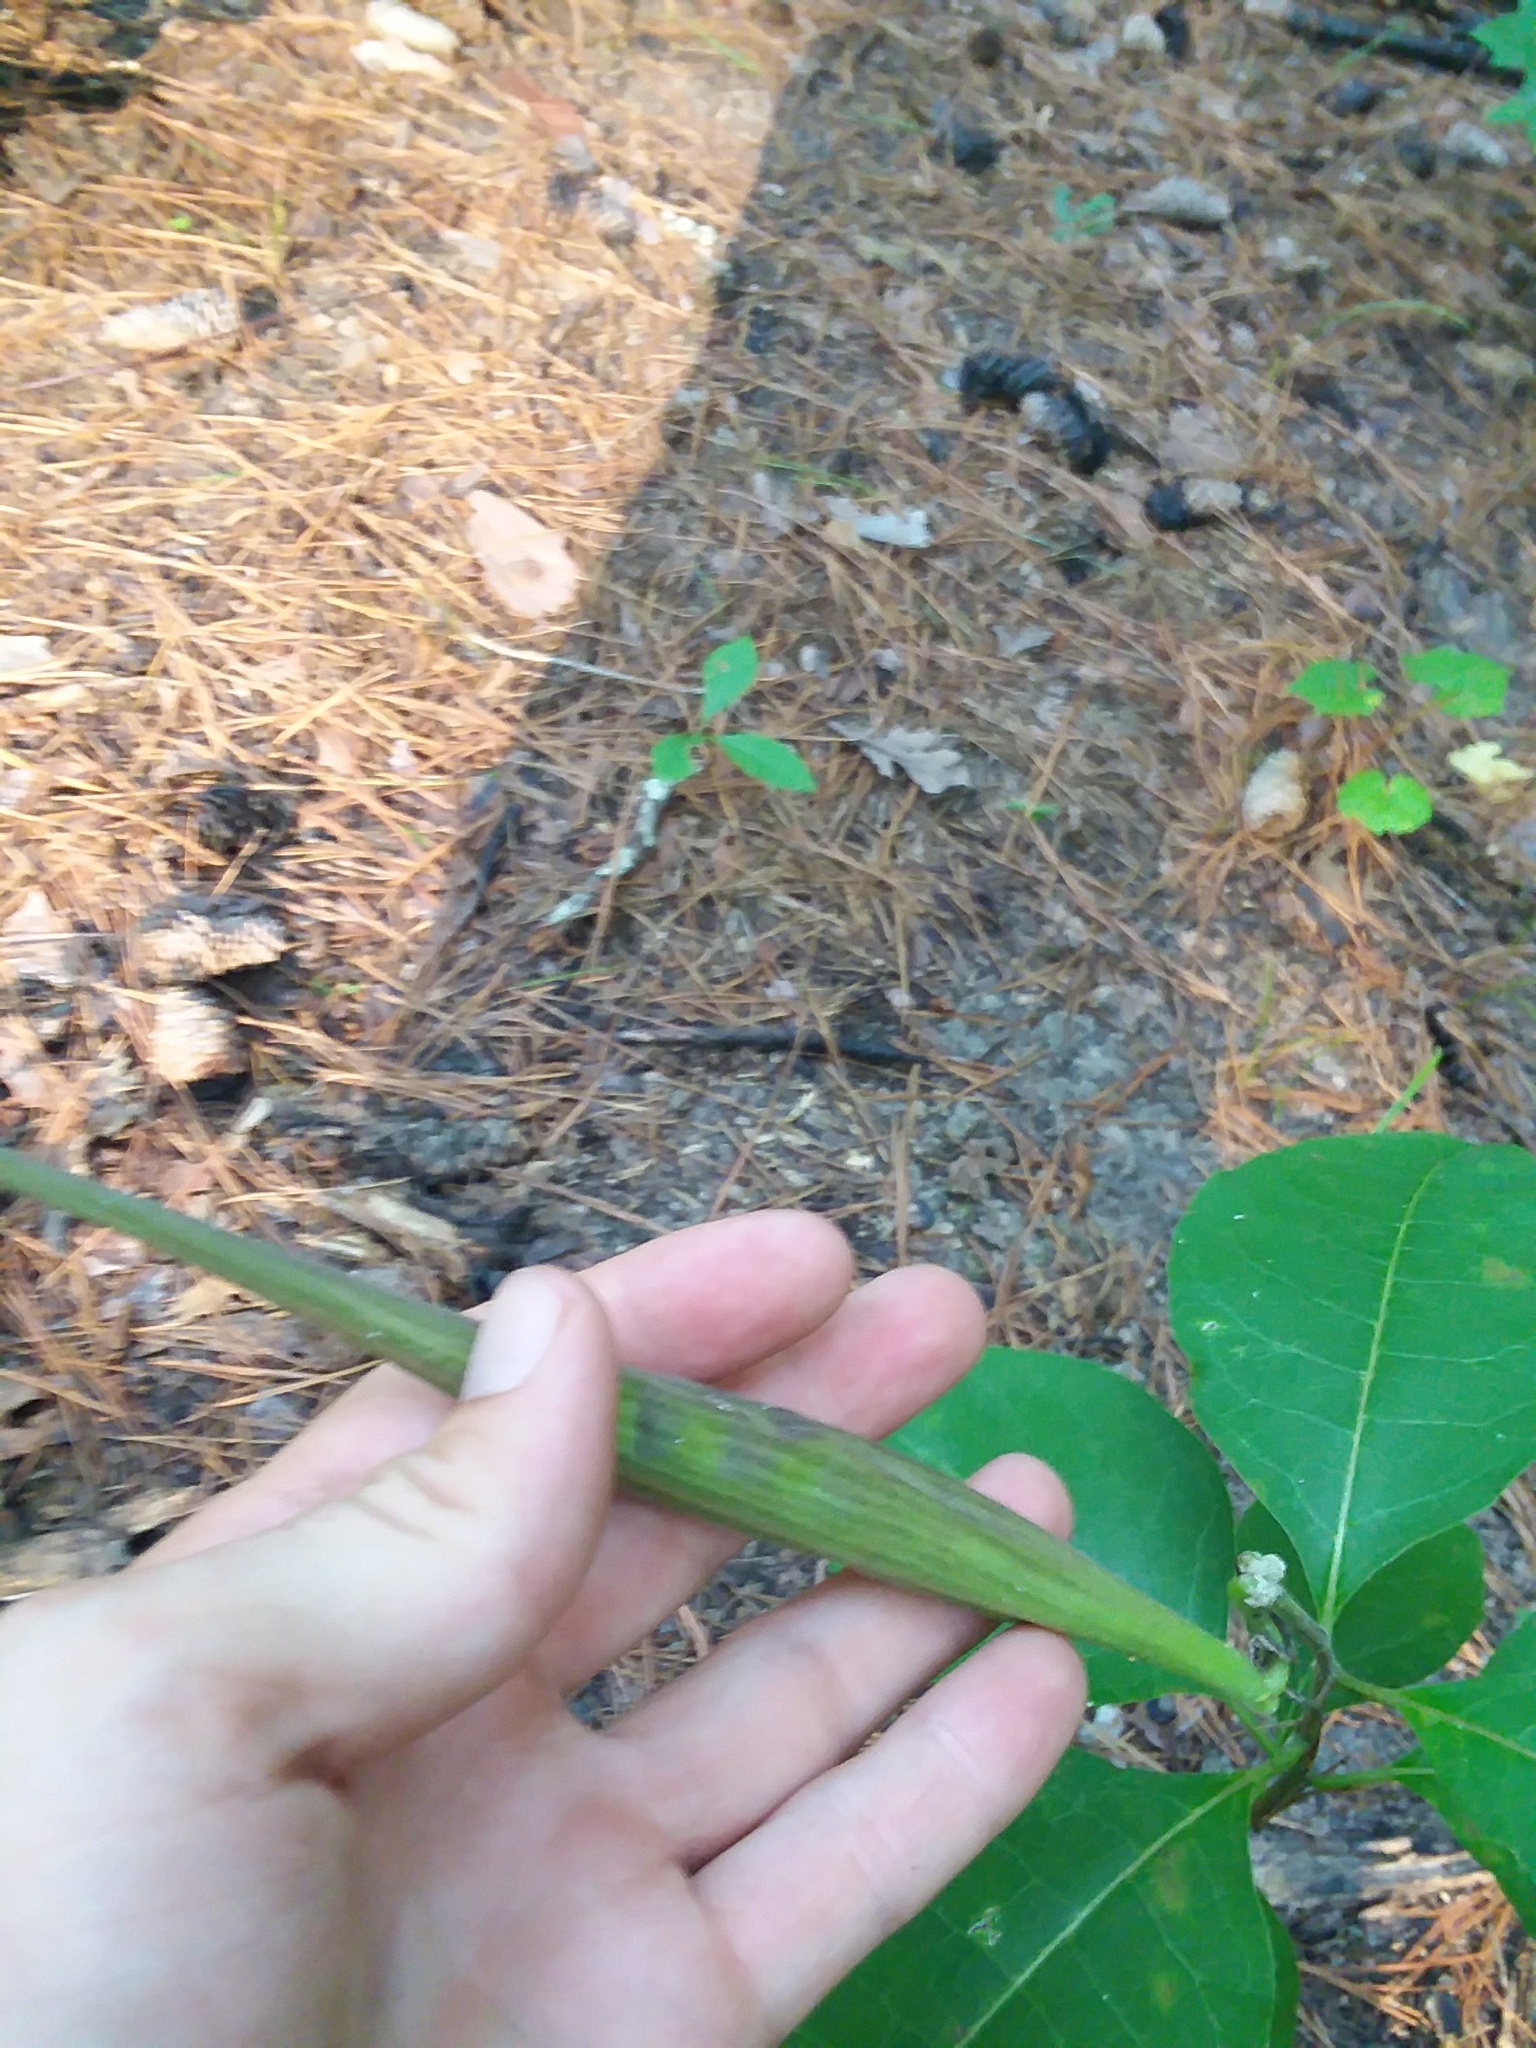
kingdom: Plantae
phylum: Tracheophyta
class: Magnoliopsida
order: Gentianales
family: Apocynaceae
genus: Asclepias
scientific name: Asclepias variegata
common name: Variegated milkweed
